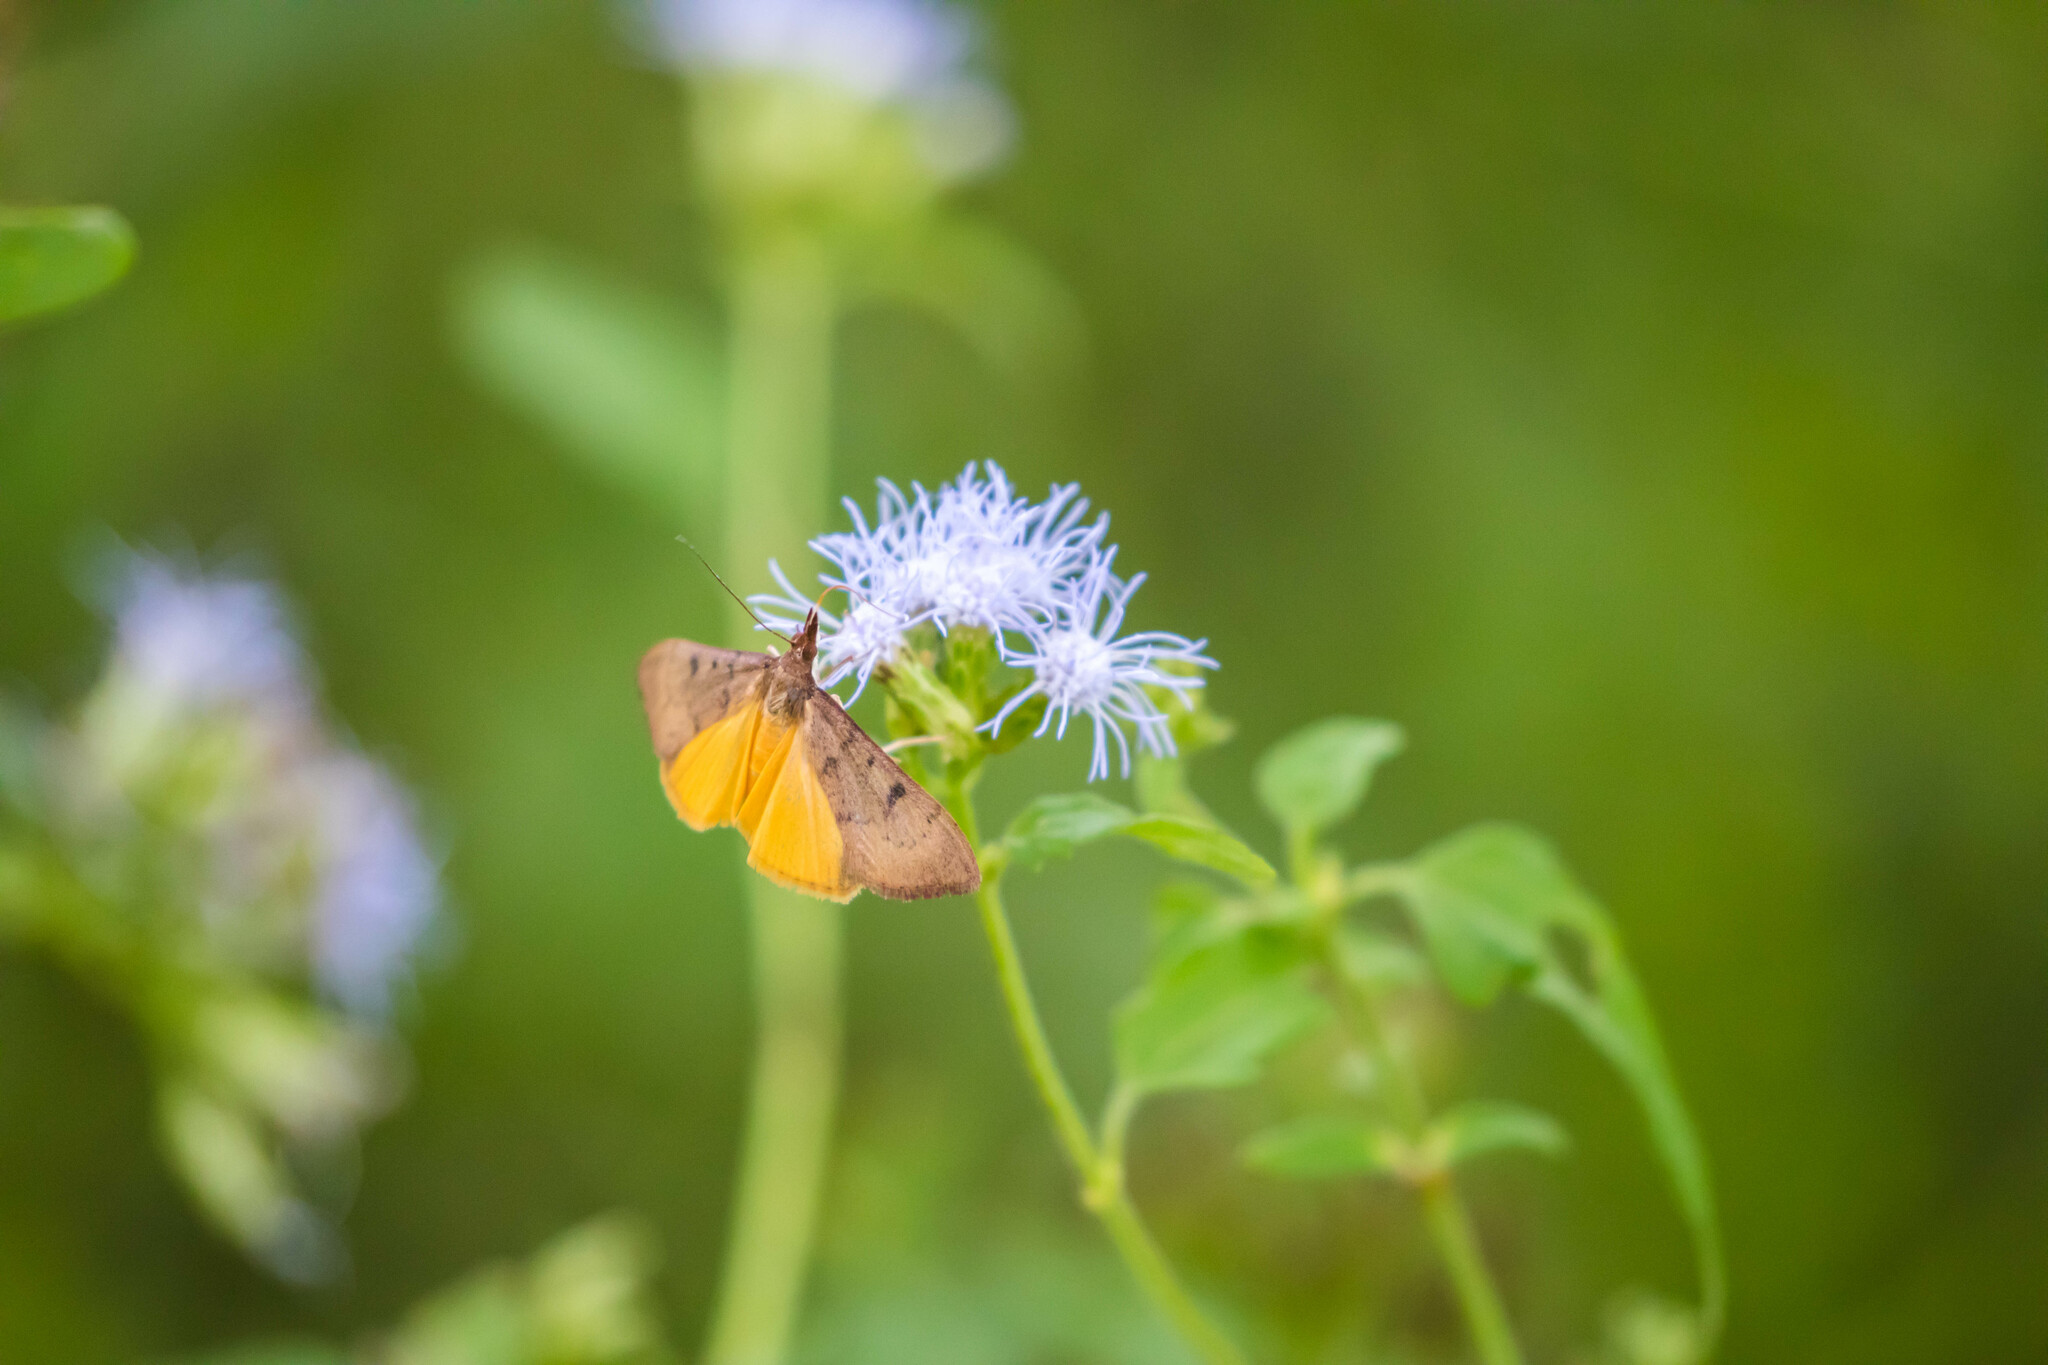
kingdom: Animalia
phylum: Arthropoda
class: Insecta
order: Lepidoptera
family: Crambidae
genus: Uresiphita
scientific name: Uresiphita reversalis
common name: Genista broom moth
